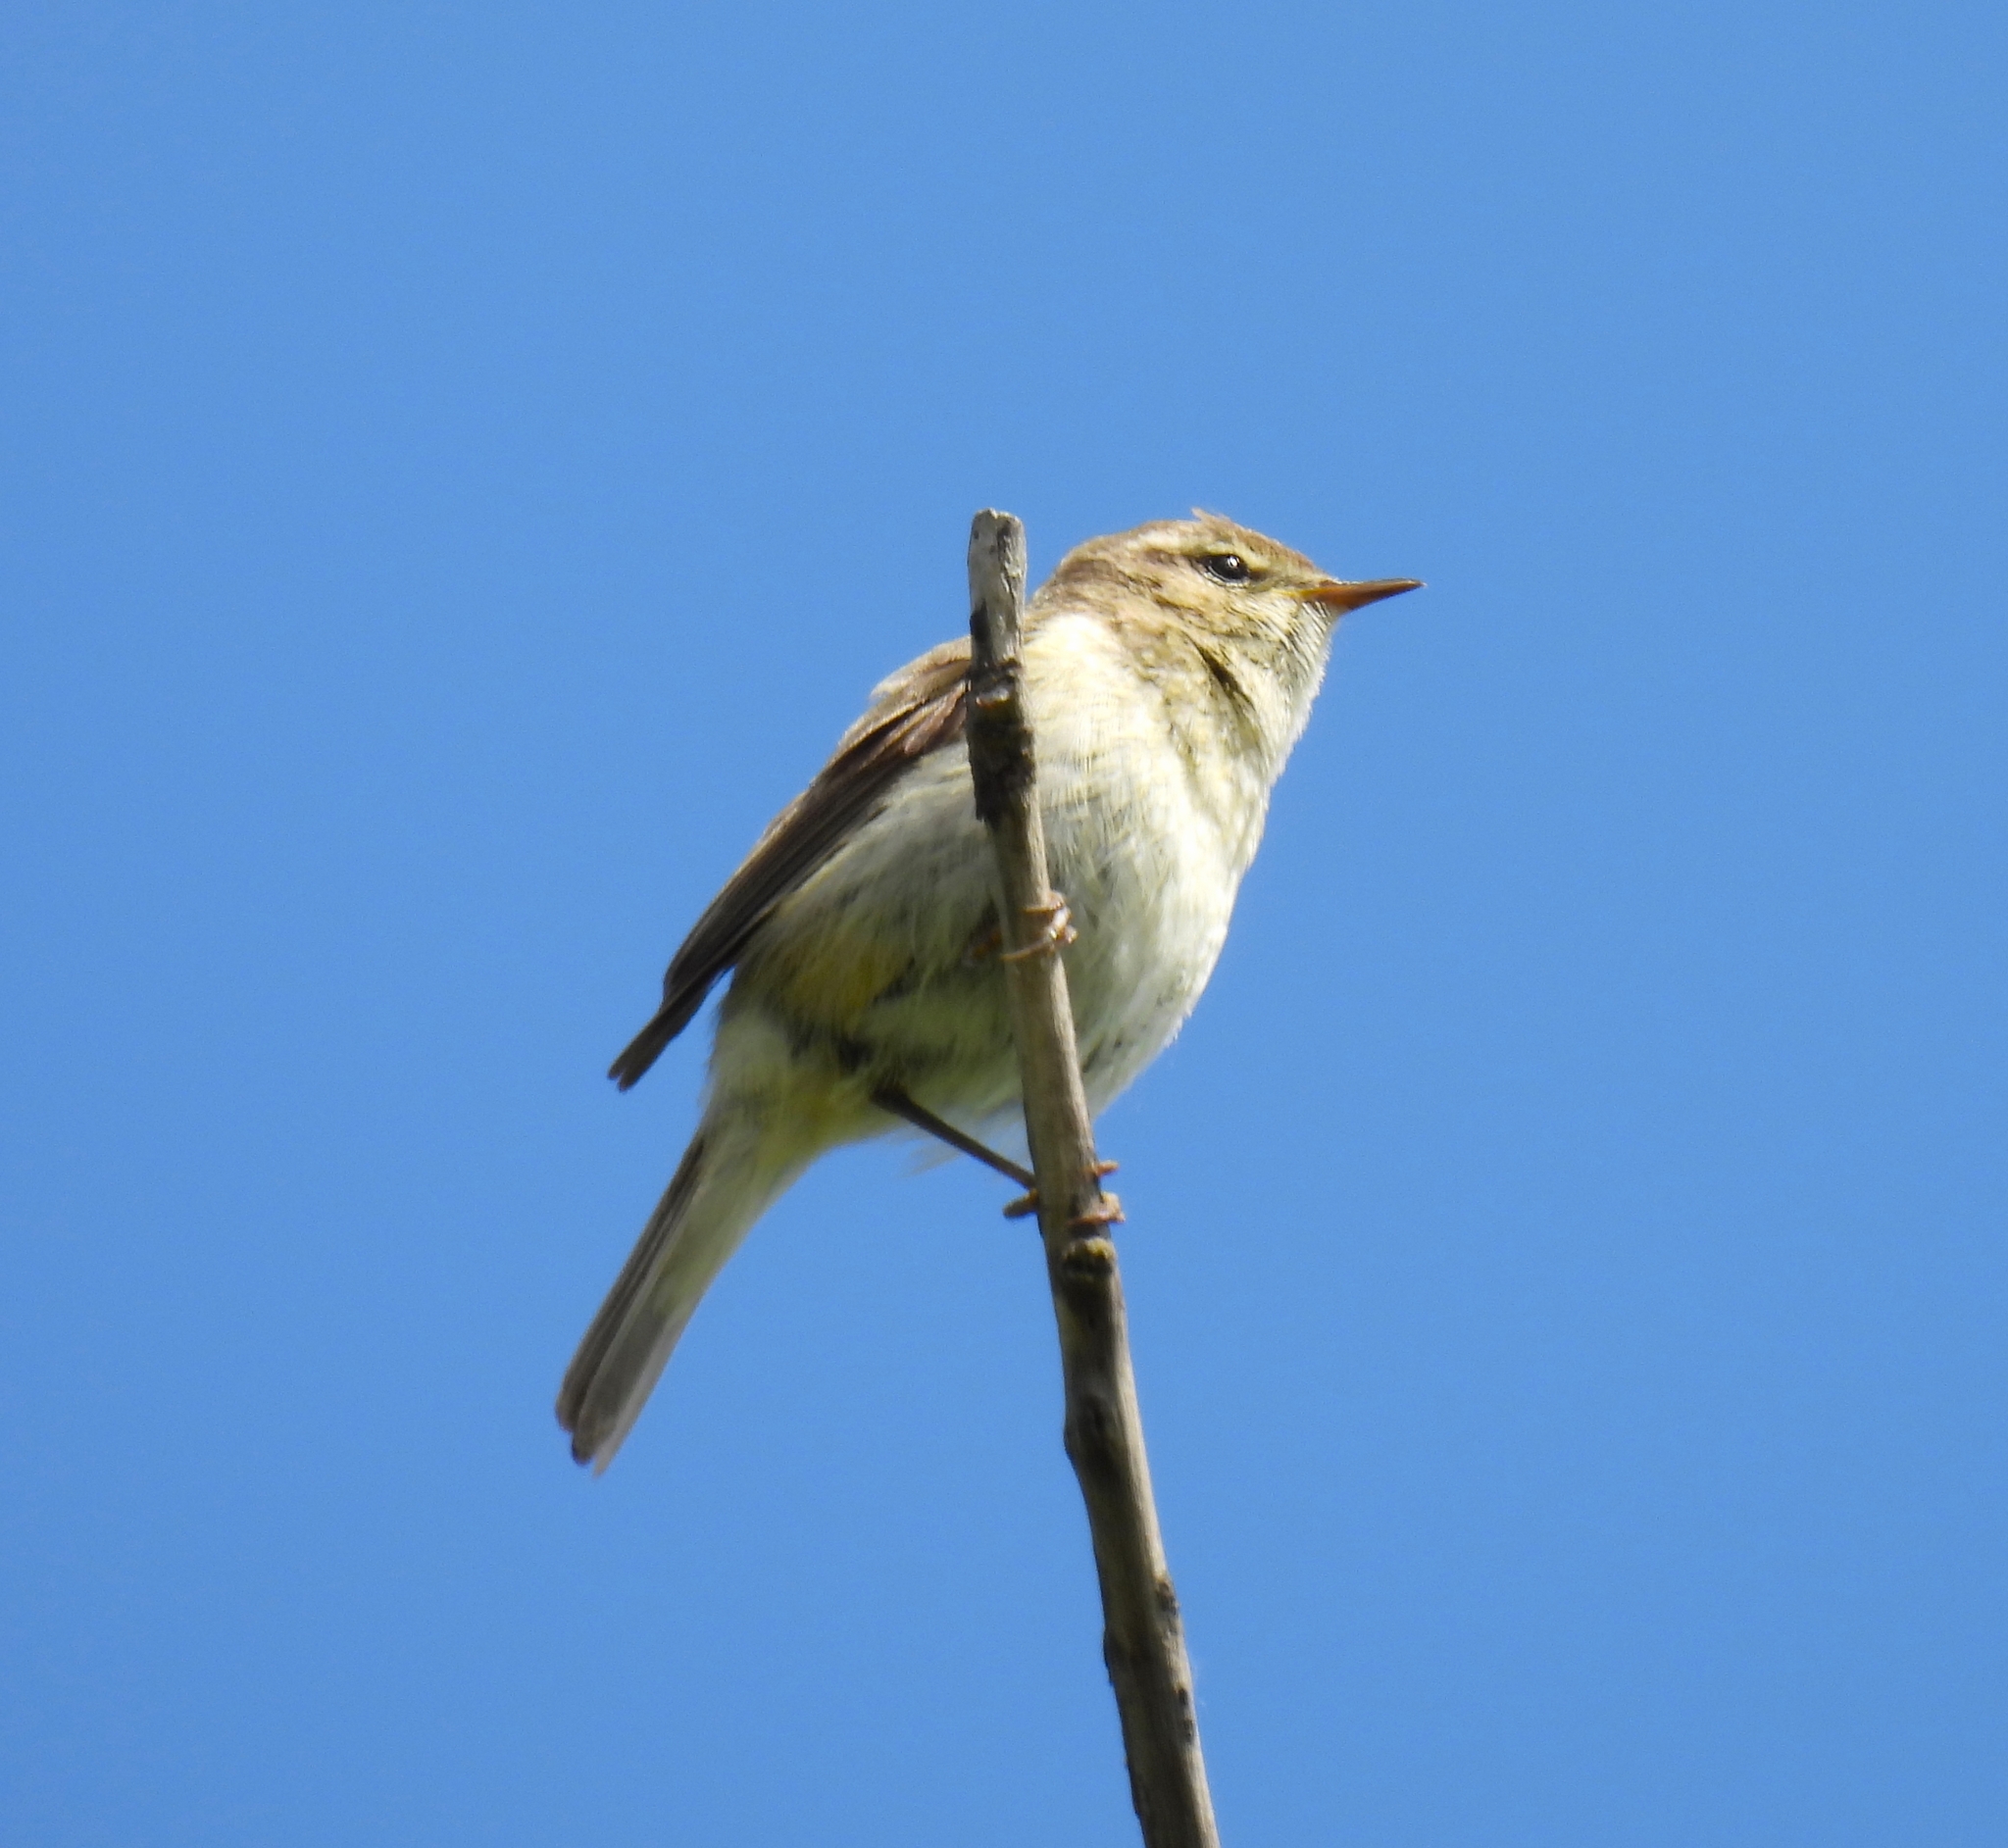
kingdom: Animalia
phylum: Chordata
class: Aves
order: Passeriformes
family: Phylloscopidae
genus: Phylloscopus
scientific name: Phylloscopus collybita
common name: Common chiffchaff
